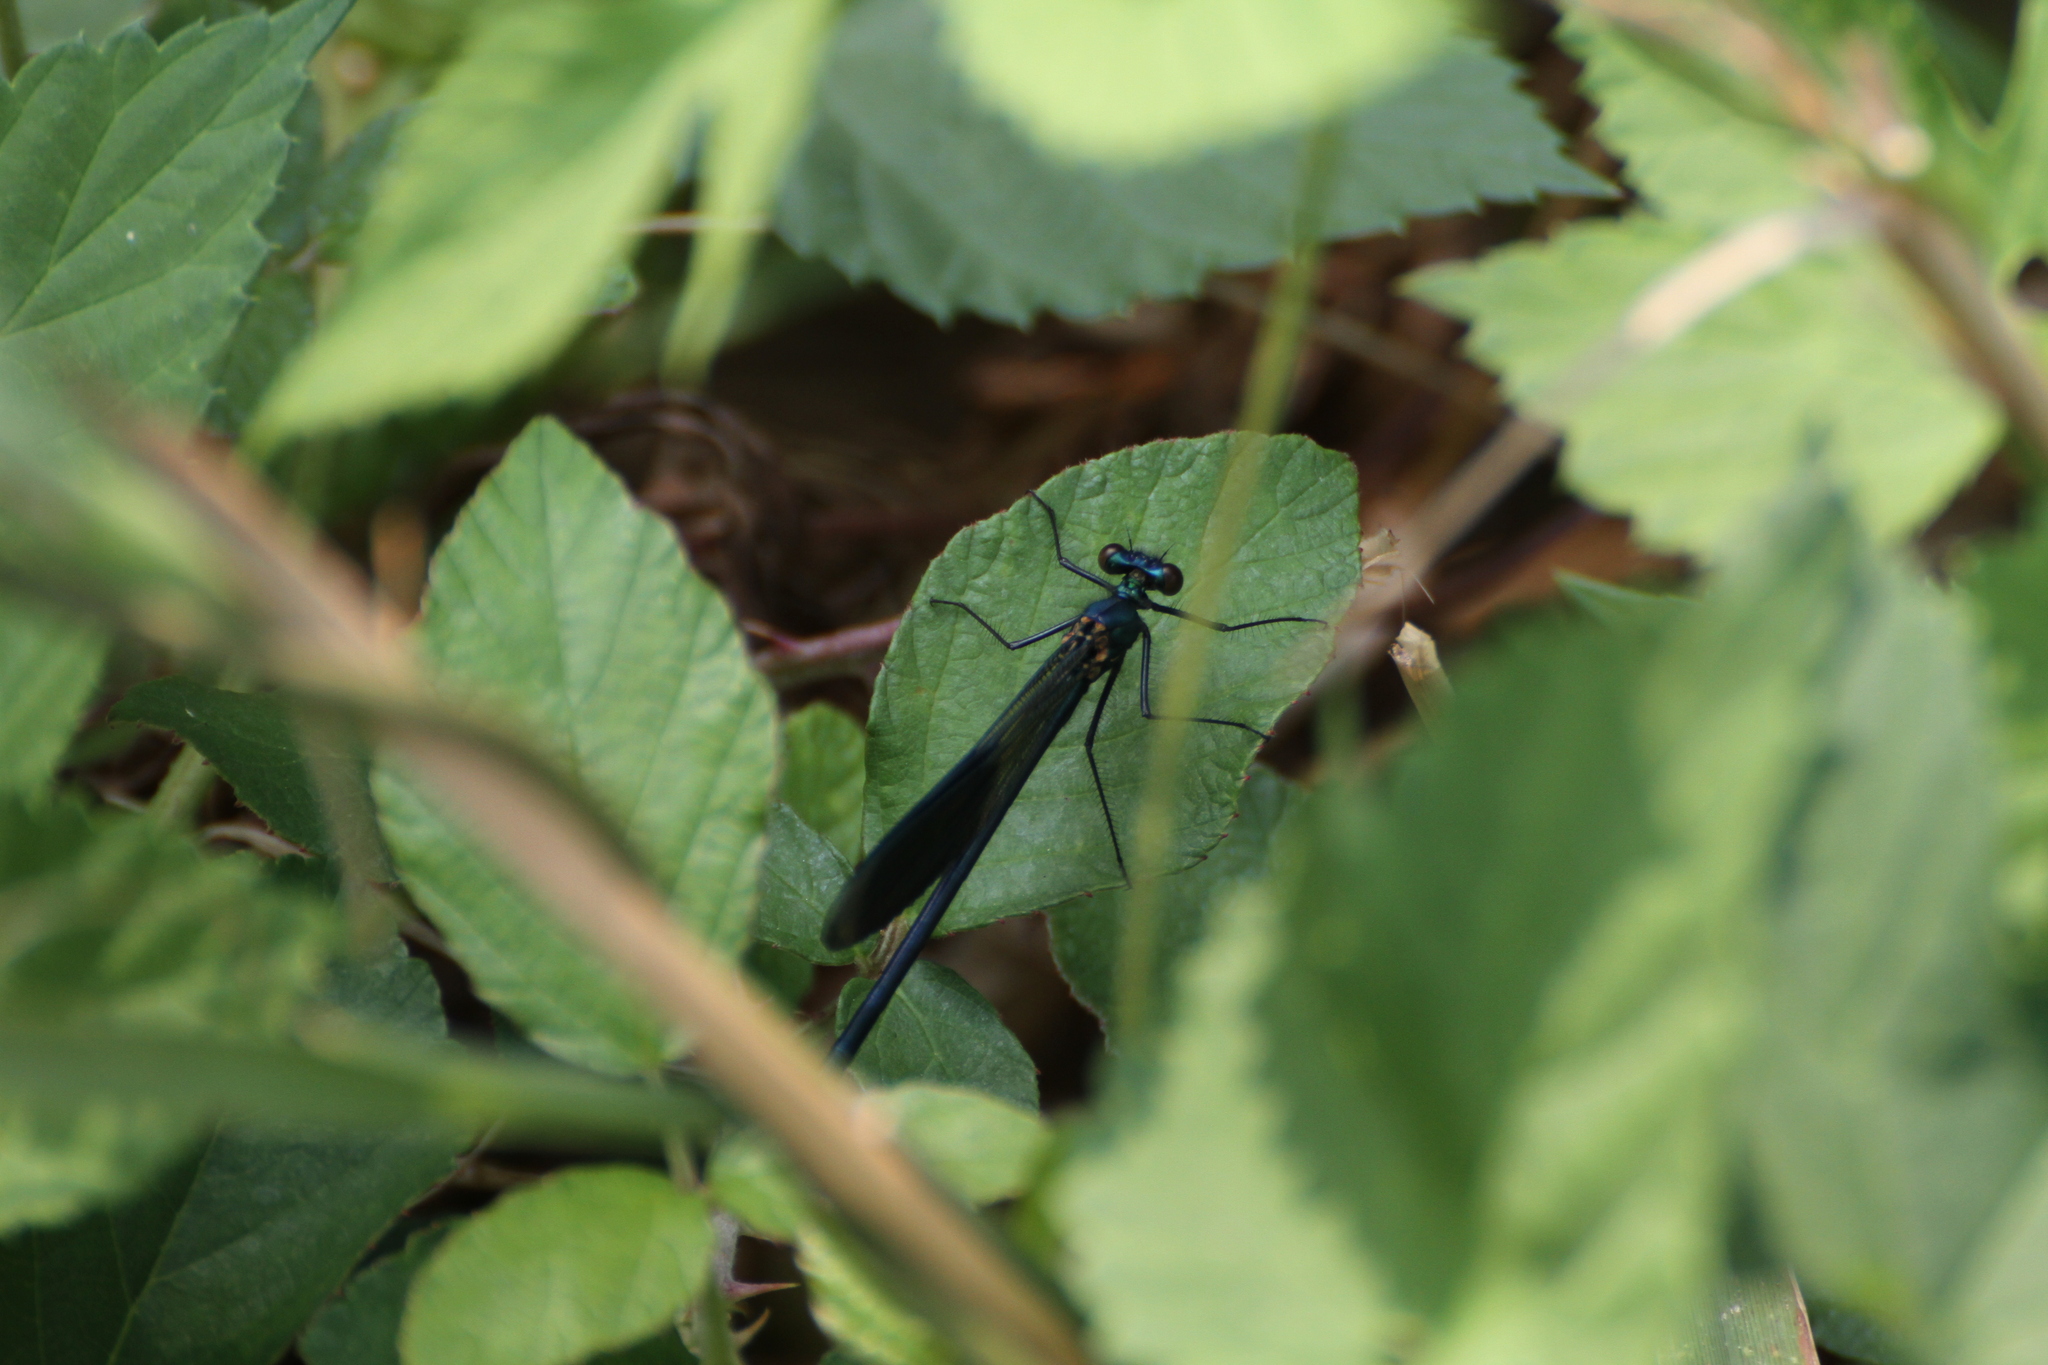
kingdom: Animalia
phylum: Arthropoda
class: Insecta
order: Odonata
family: Calopterygidae
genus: Calopteryx
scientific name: Calopteryx splendens
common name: Banded demoiselle
